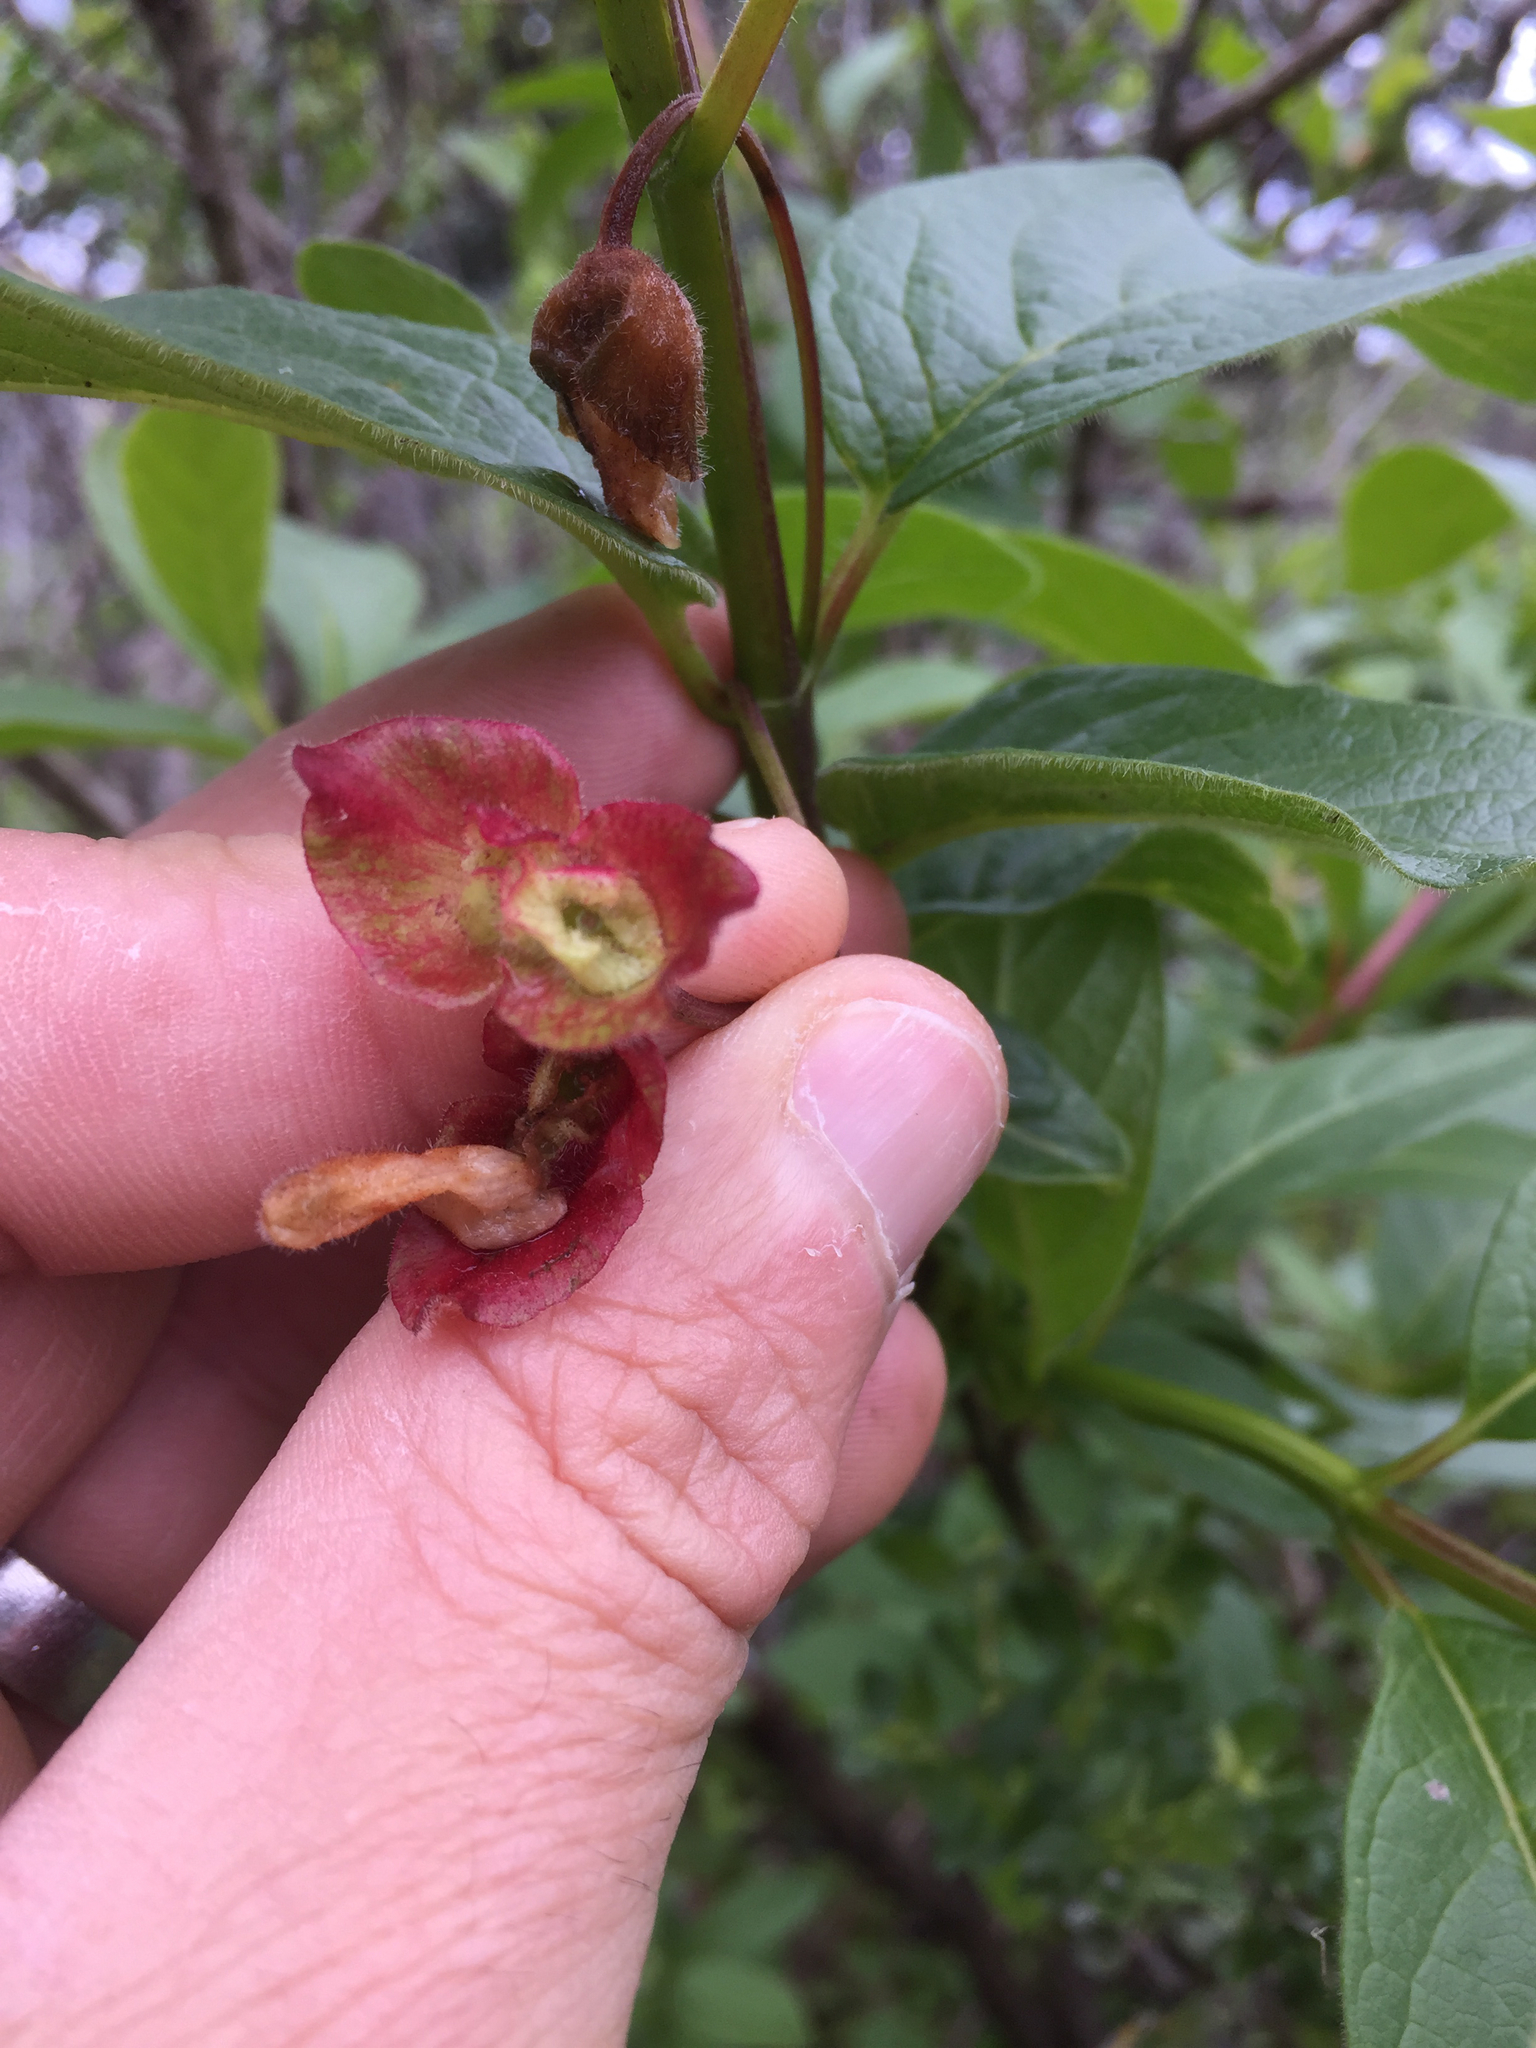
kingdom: Plantae
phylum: Tracheophyta
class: Magnoliopsida
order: Dipsacales
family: Caprifoliaceae
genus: Lonicera
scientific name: Lonicera involucrata
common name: Californian honeysuckle
